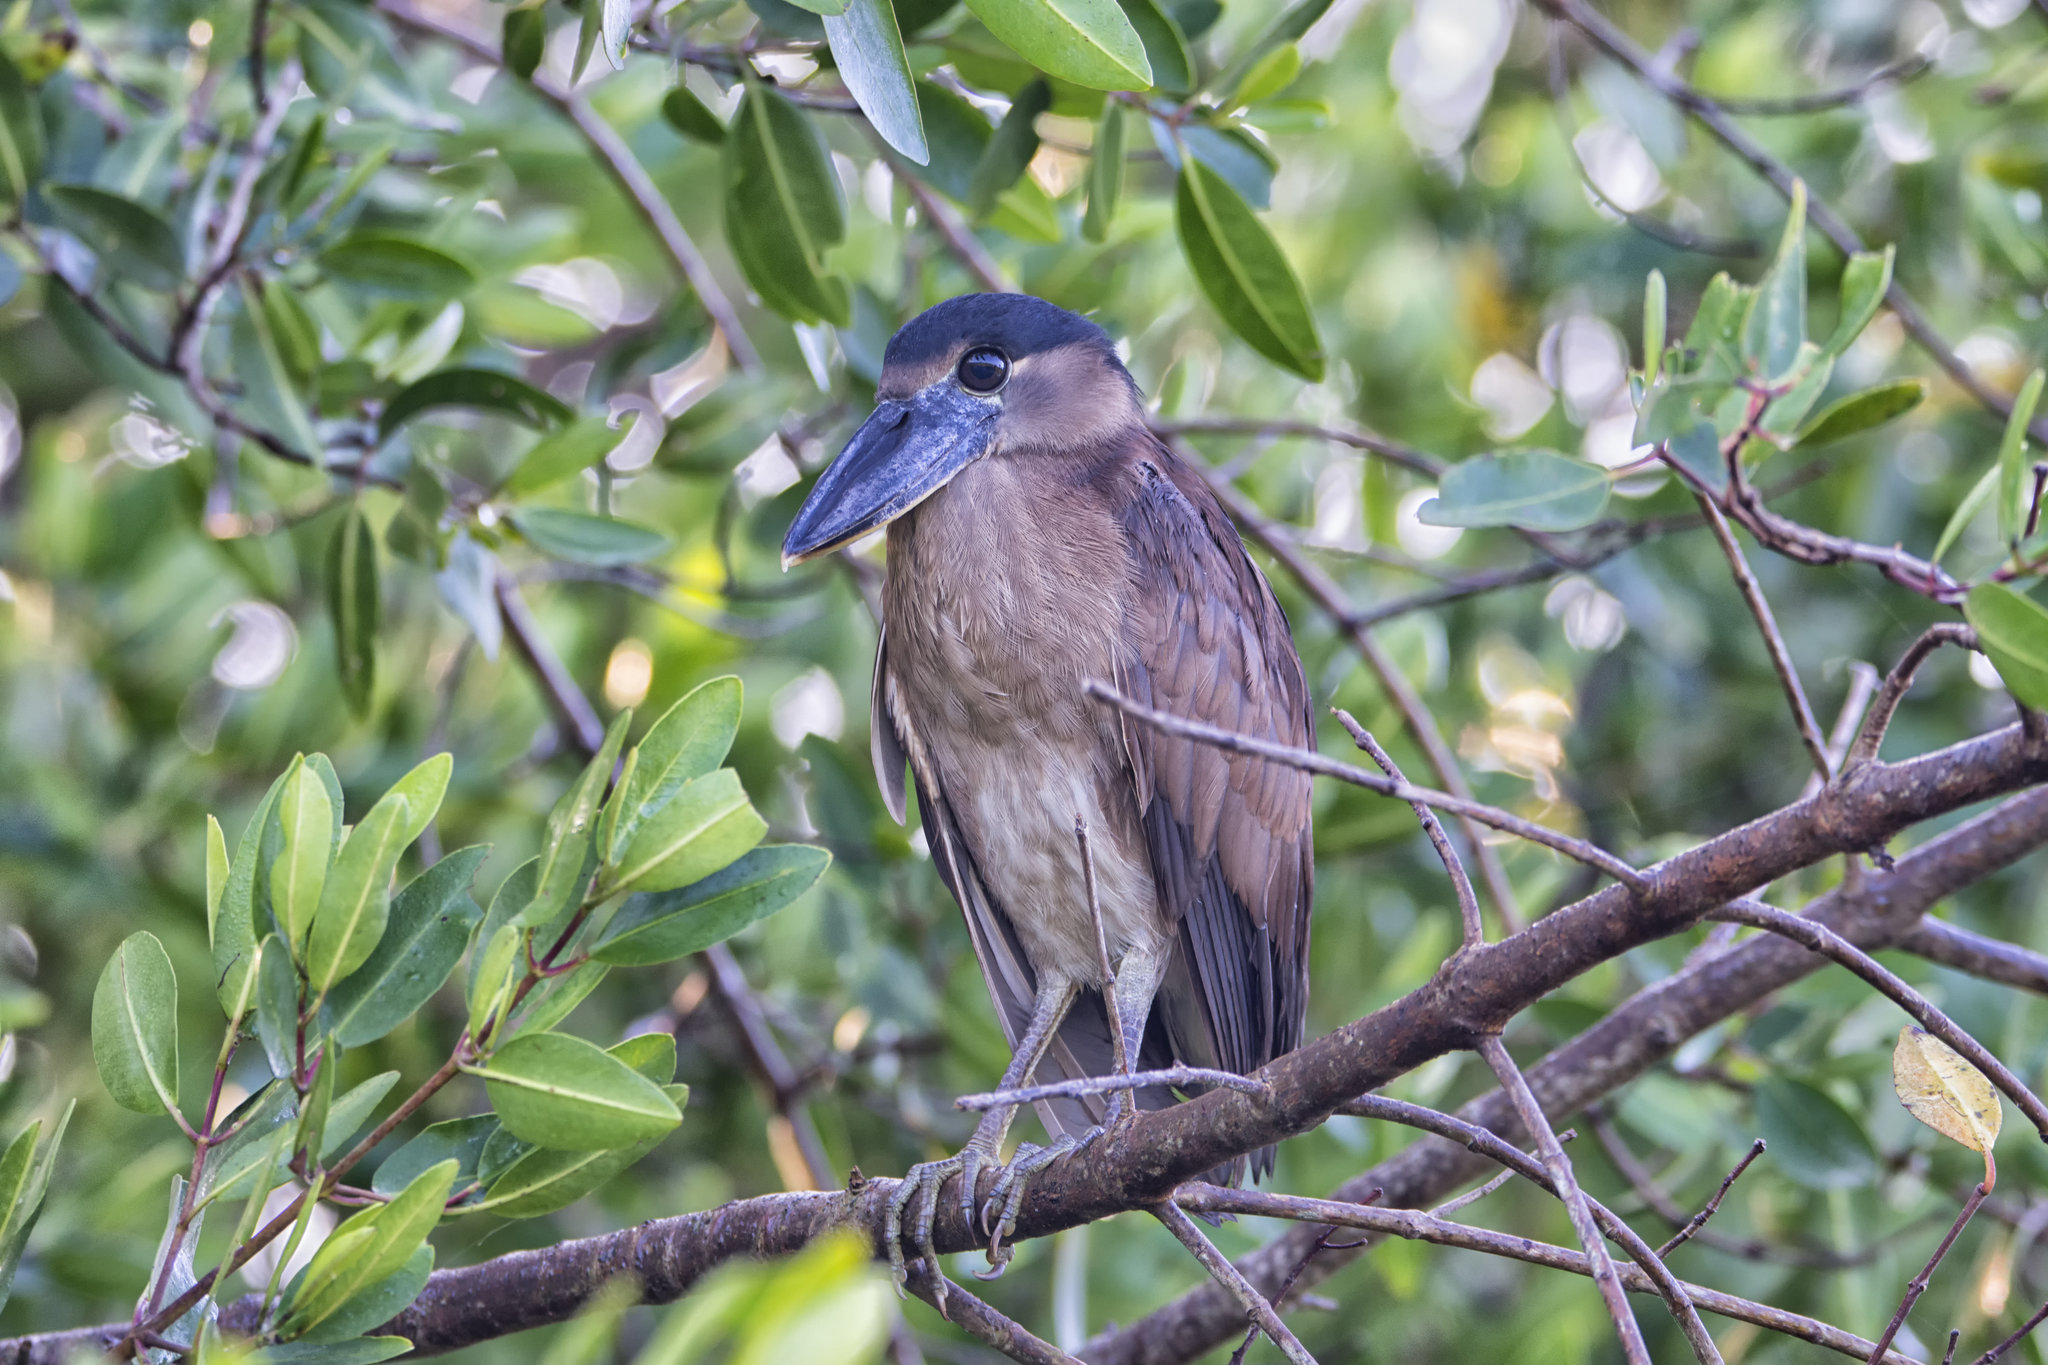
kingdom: Animalia
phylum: Chordata
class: Aves
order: Pelecaniformes
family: Ardeidae
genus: Cochlearius
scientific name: Cochlearius cochlearius
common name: Boat-billed heron
